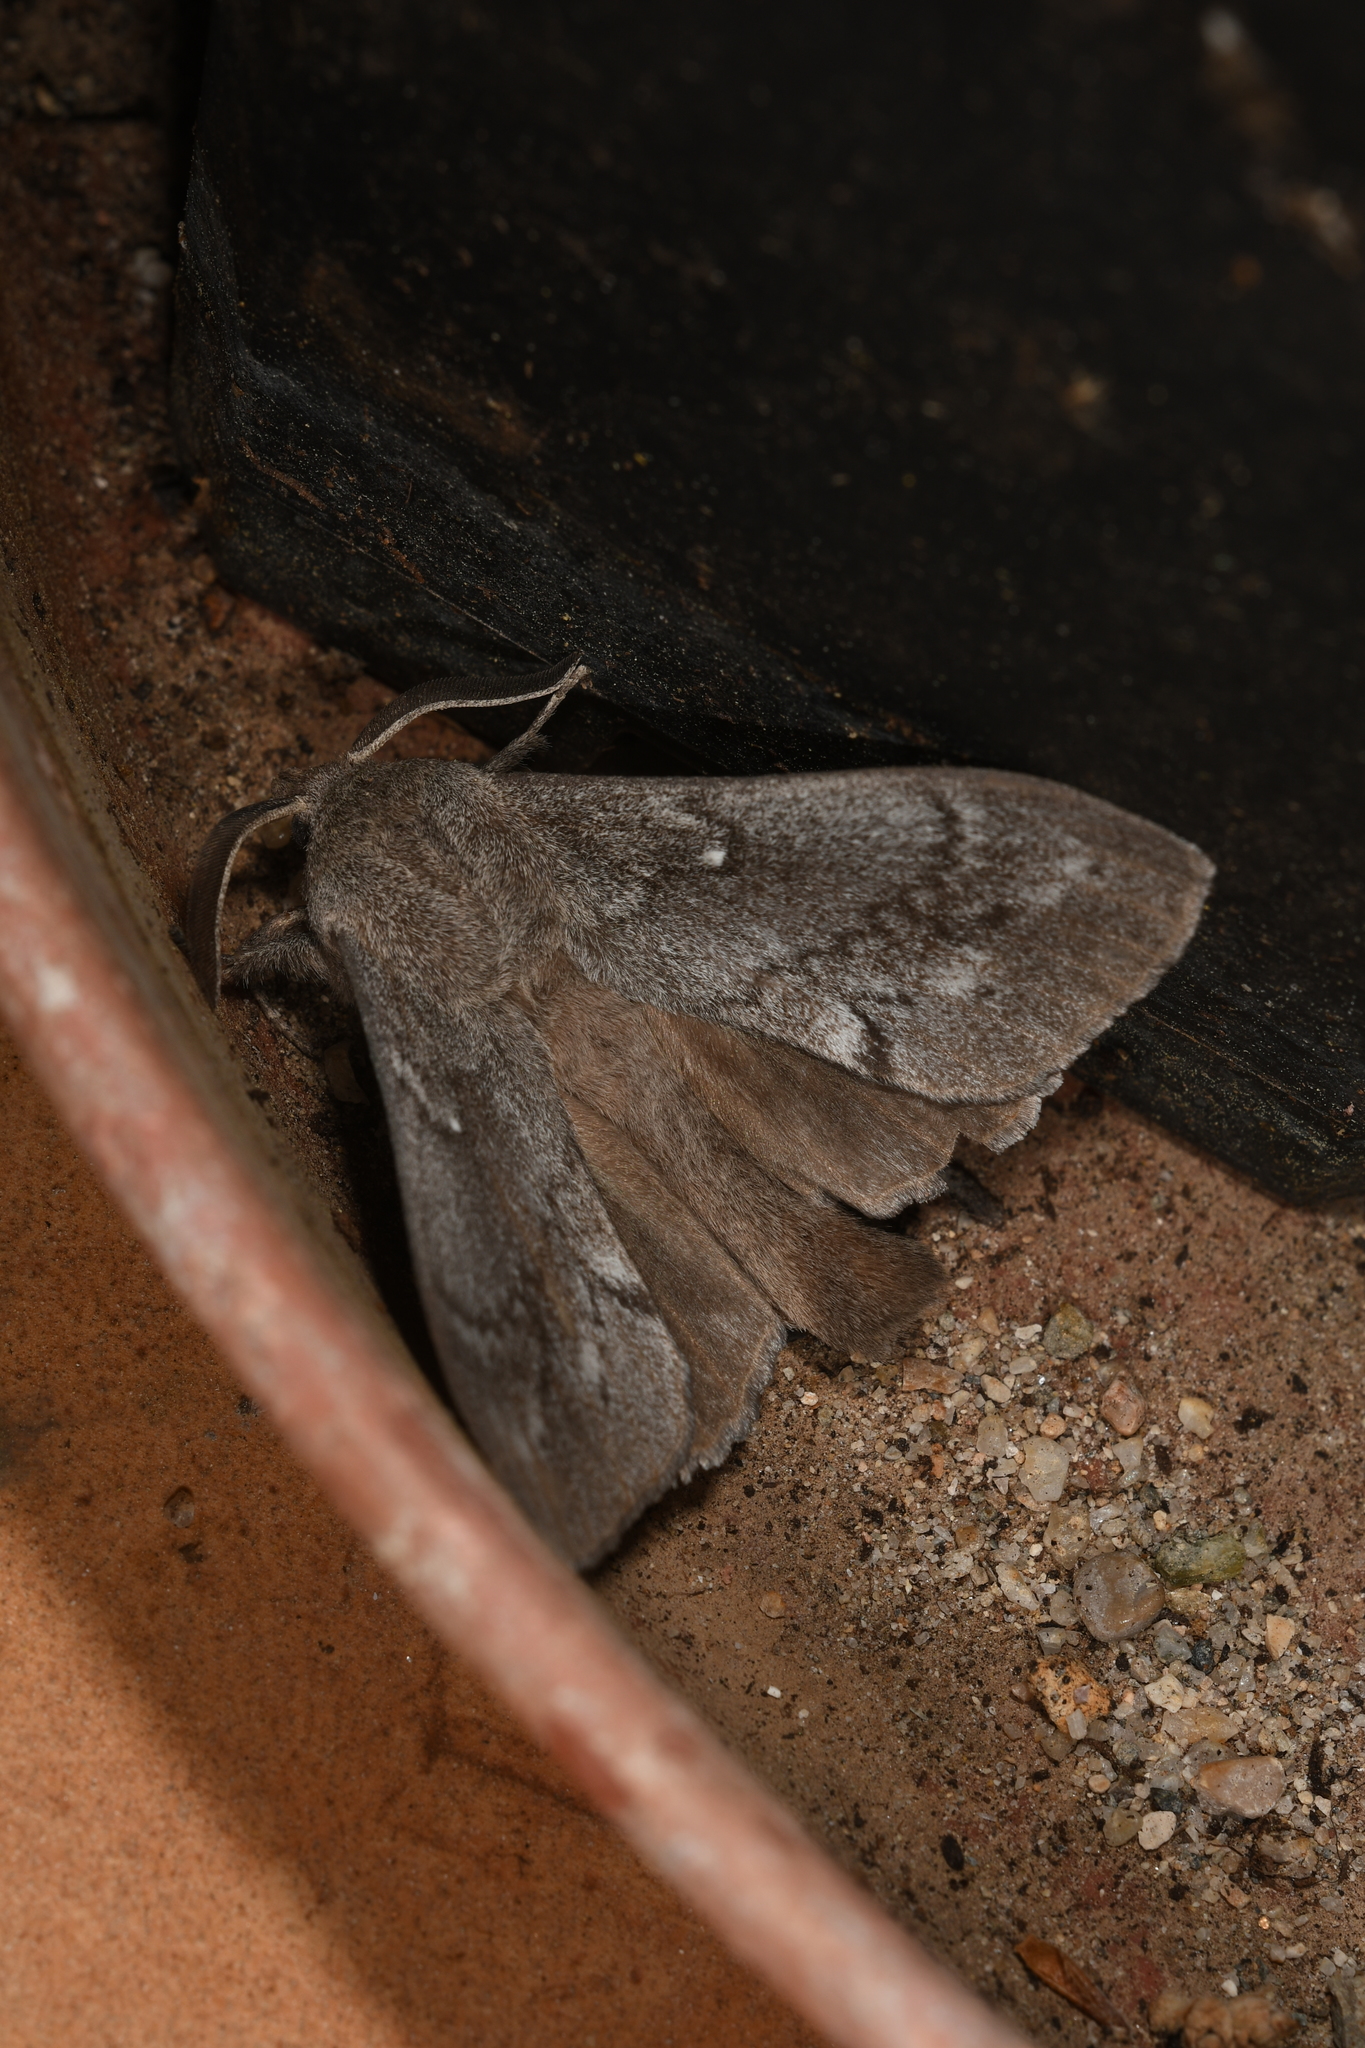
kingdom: Animalia
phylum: Arthropoda
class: Insecta
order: Lepidoptera
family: Lasiocampidae
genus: Dendrolimus
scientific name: Dendrolimus pini
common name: Pine-tree lappet
